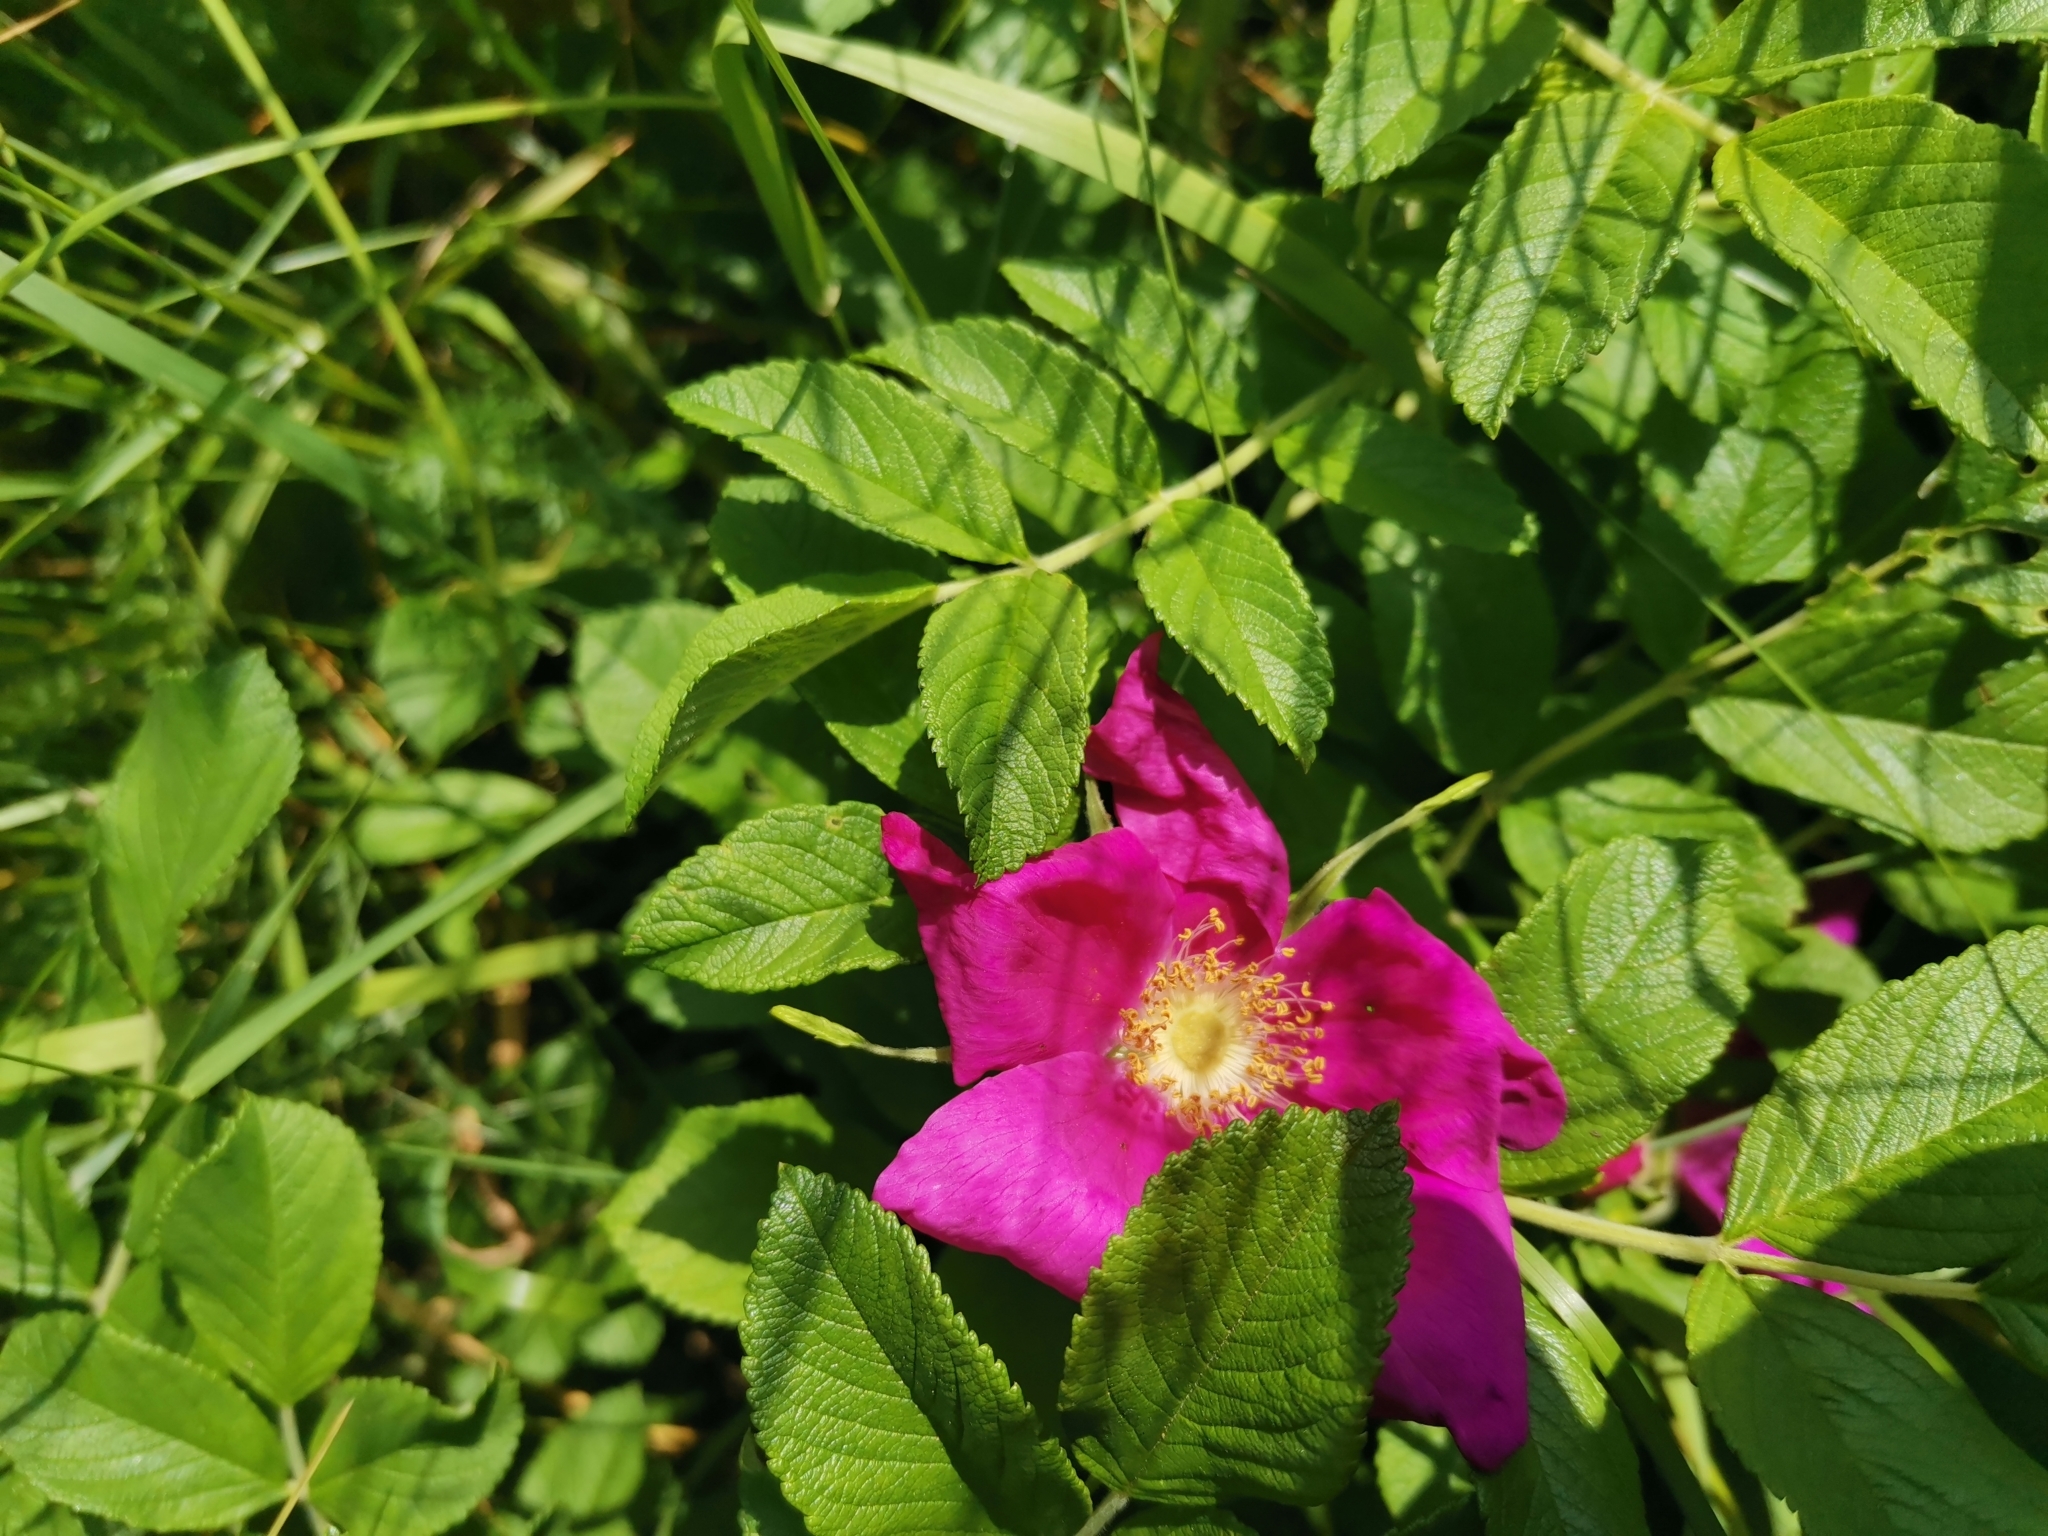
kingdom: Plantae
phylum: Tracheophyta
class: Magnoliopsida
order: Rosales
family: Rosaceae
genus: Rosa
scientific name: Rosa rugosa
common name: Japanese rose
